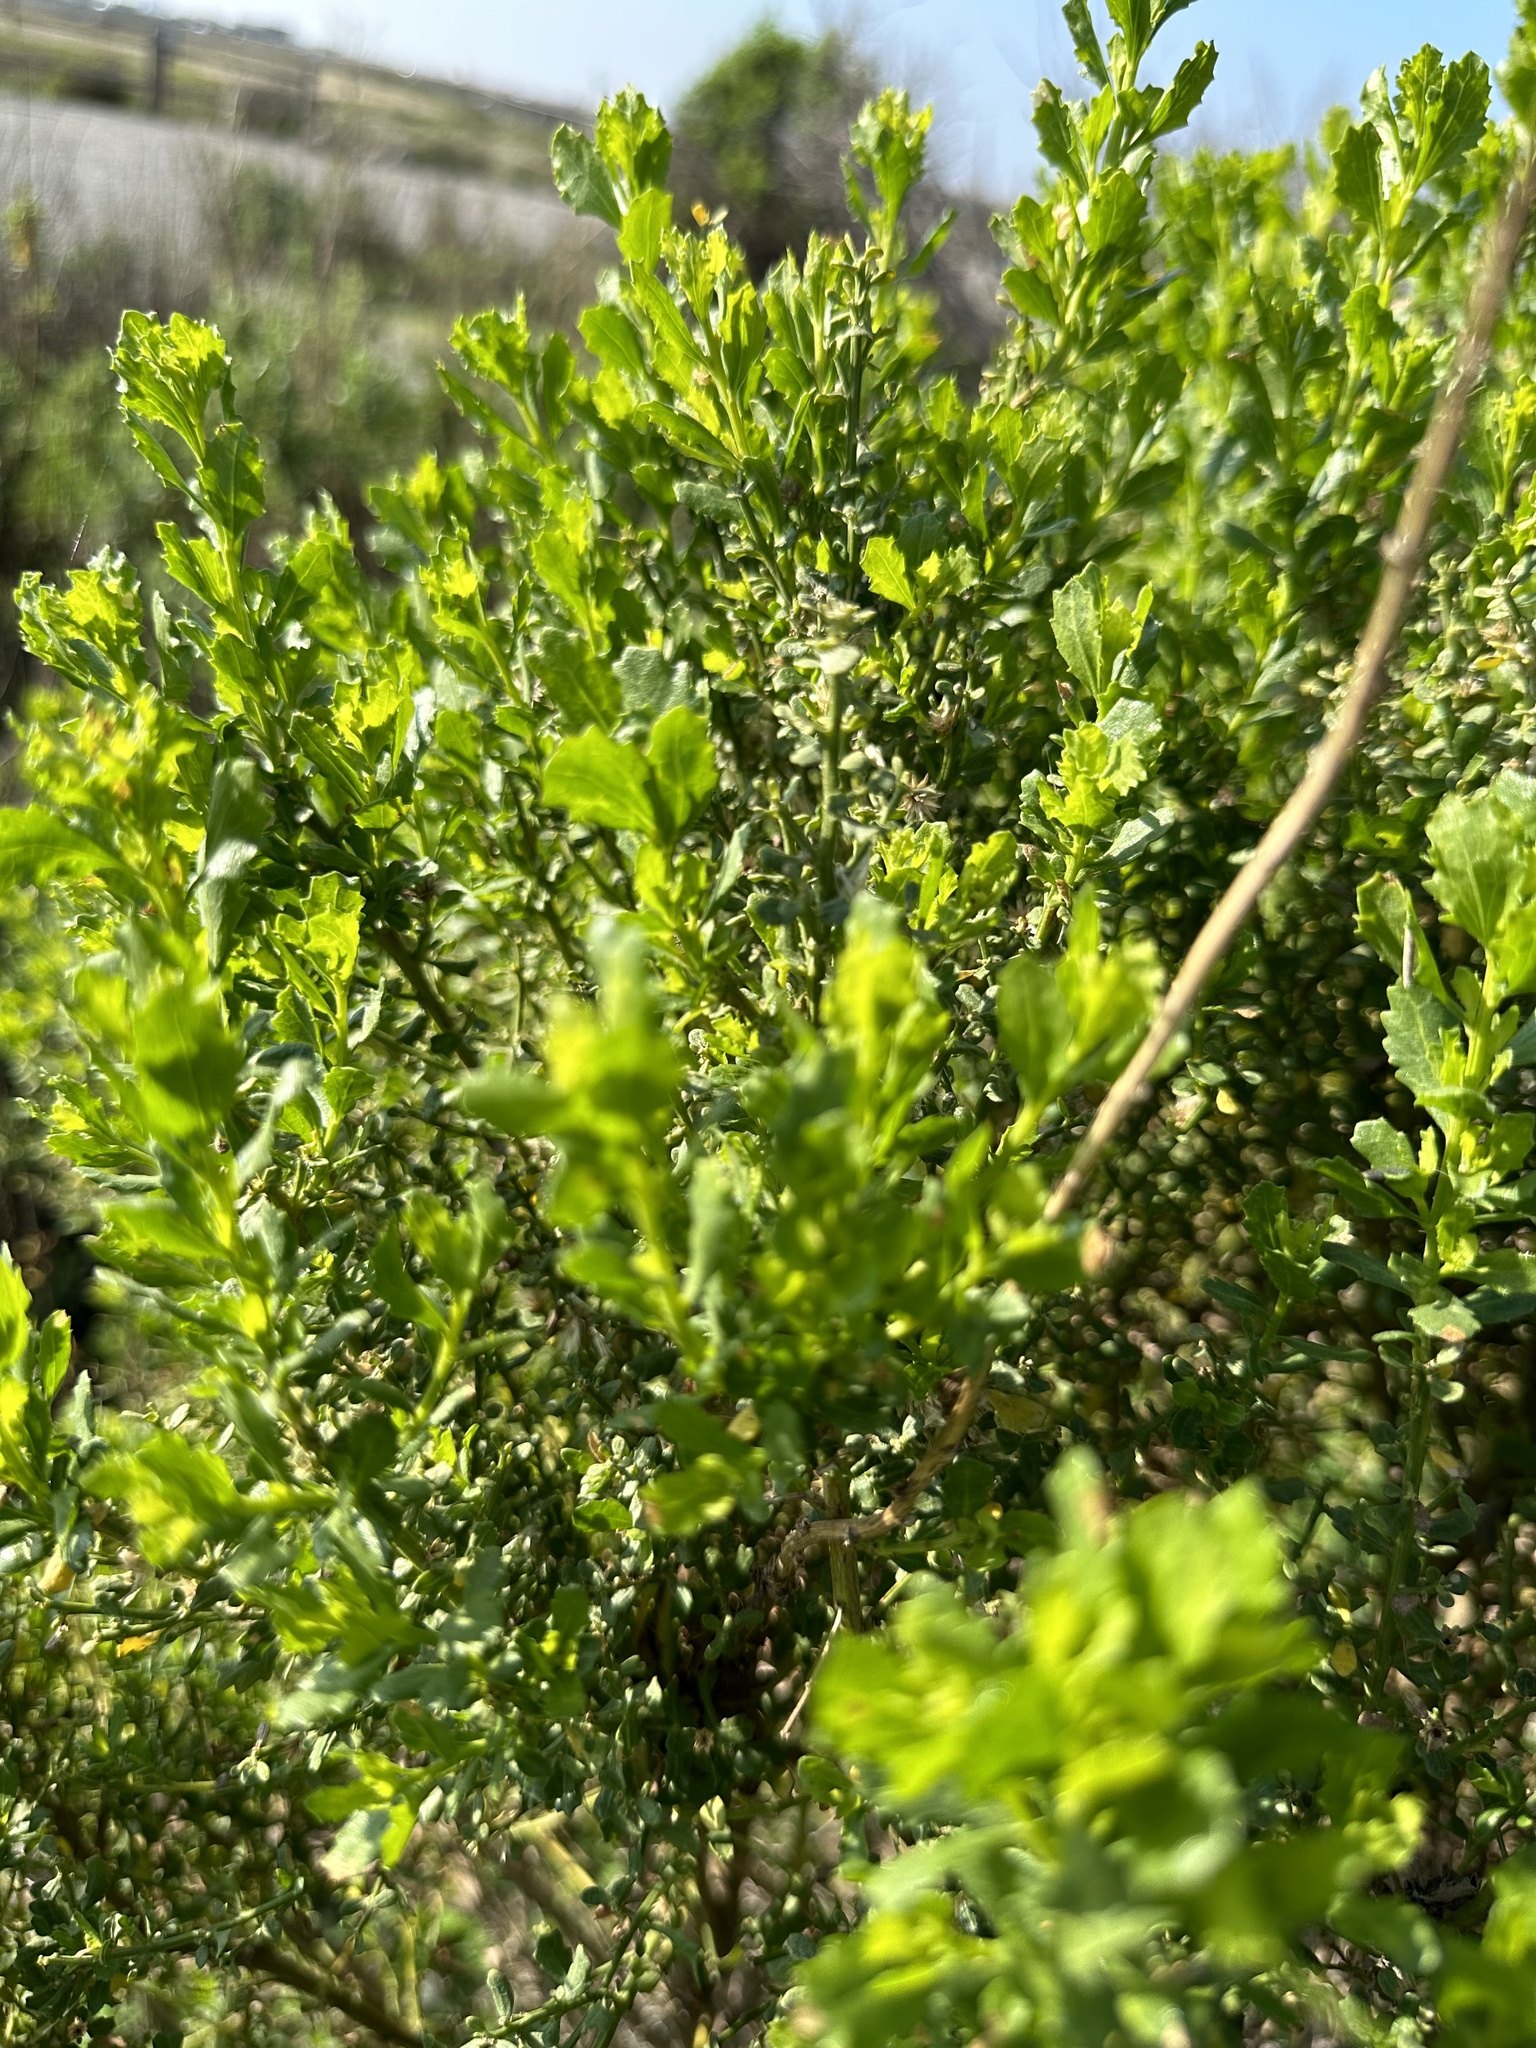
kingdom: Plantae
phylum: Tracheophyta
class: Magnoliopsida
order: Asterales
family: Asteraceae
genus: Baccharis
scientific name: Baccharis pilularis
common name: Coyotebrush
